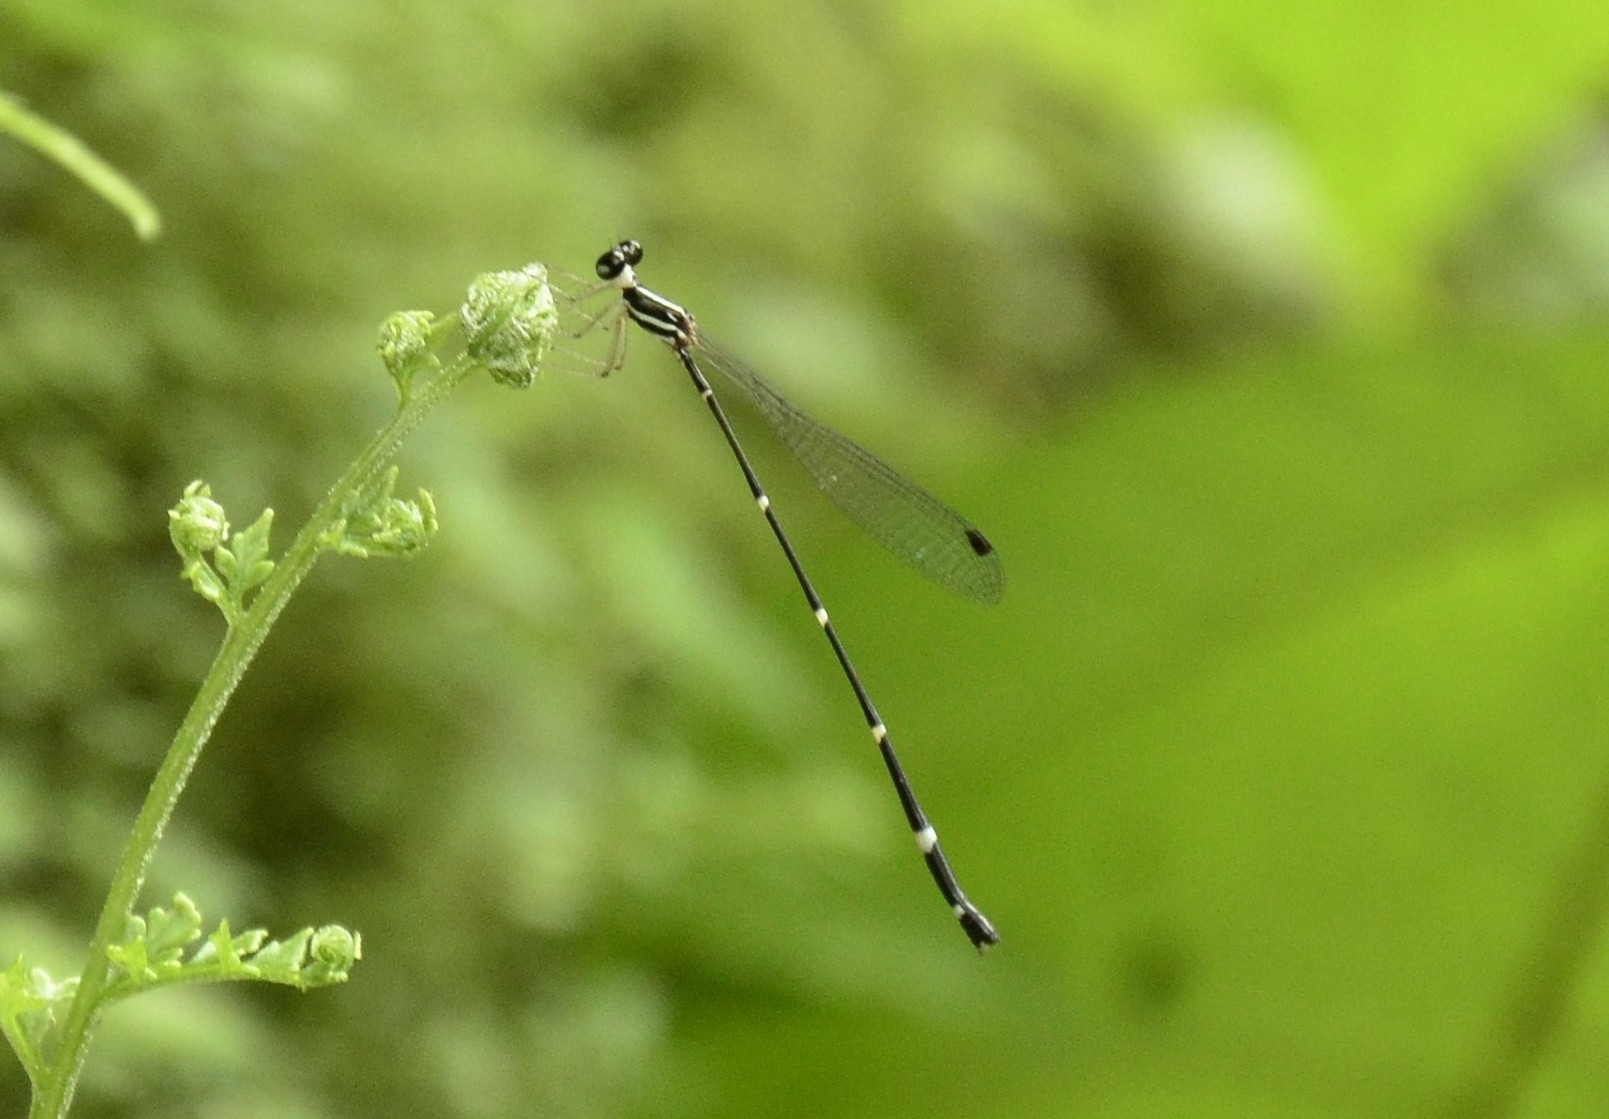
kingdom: Animalia
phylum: Arthropoda
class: Insecta
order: Odonata
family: Platystictidae
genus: Protosticta
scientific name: Protosticta gravelyi
